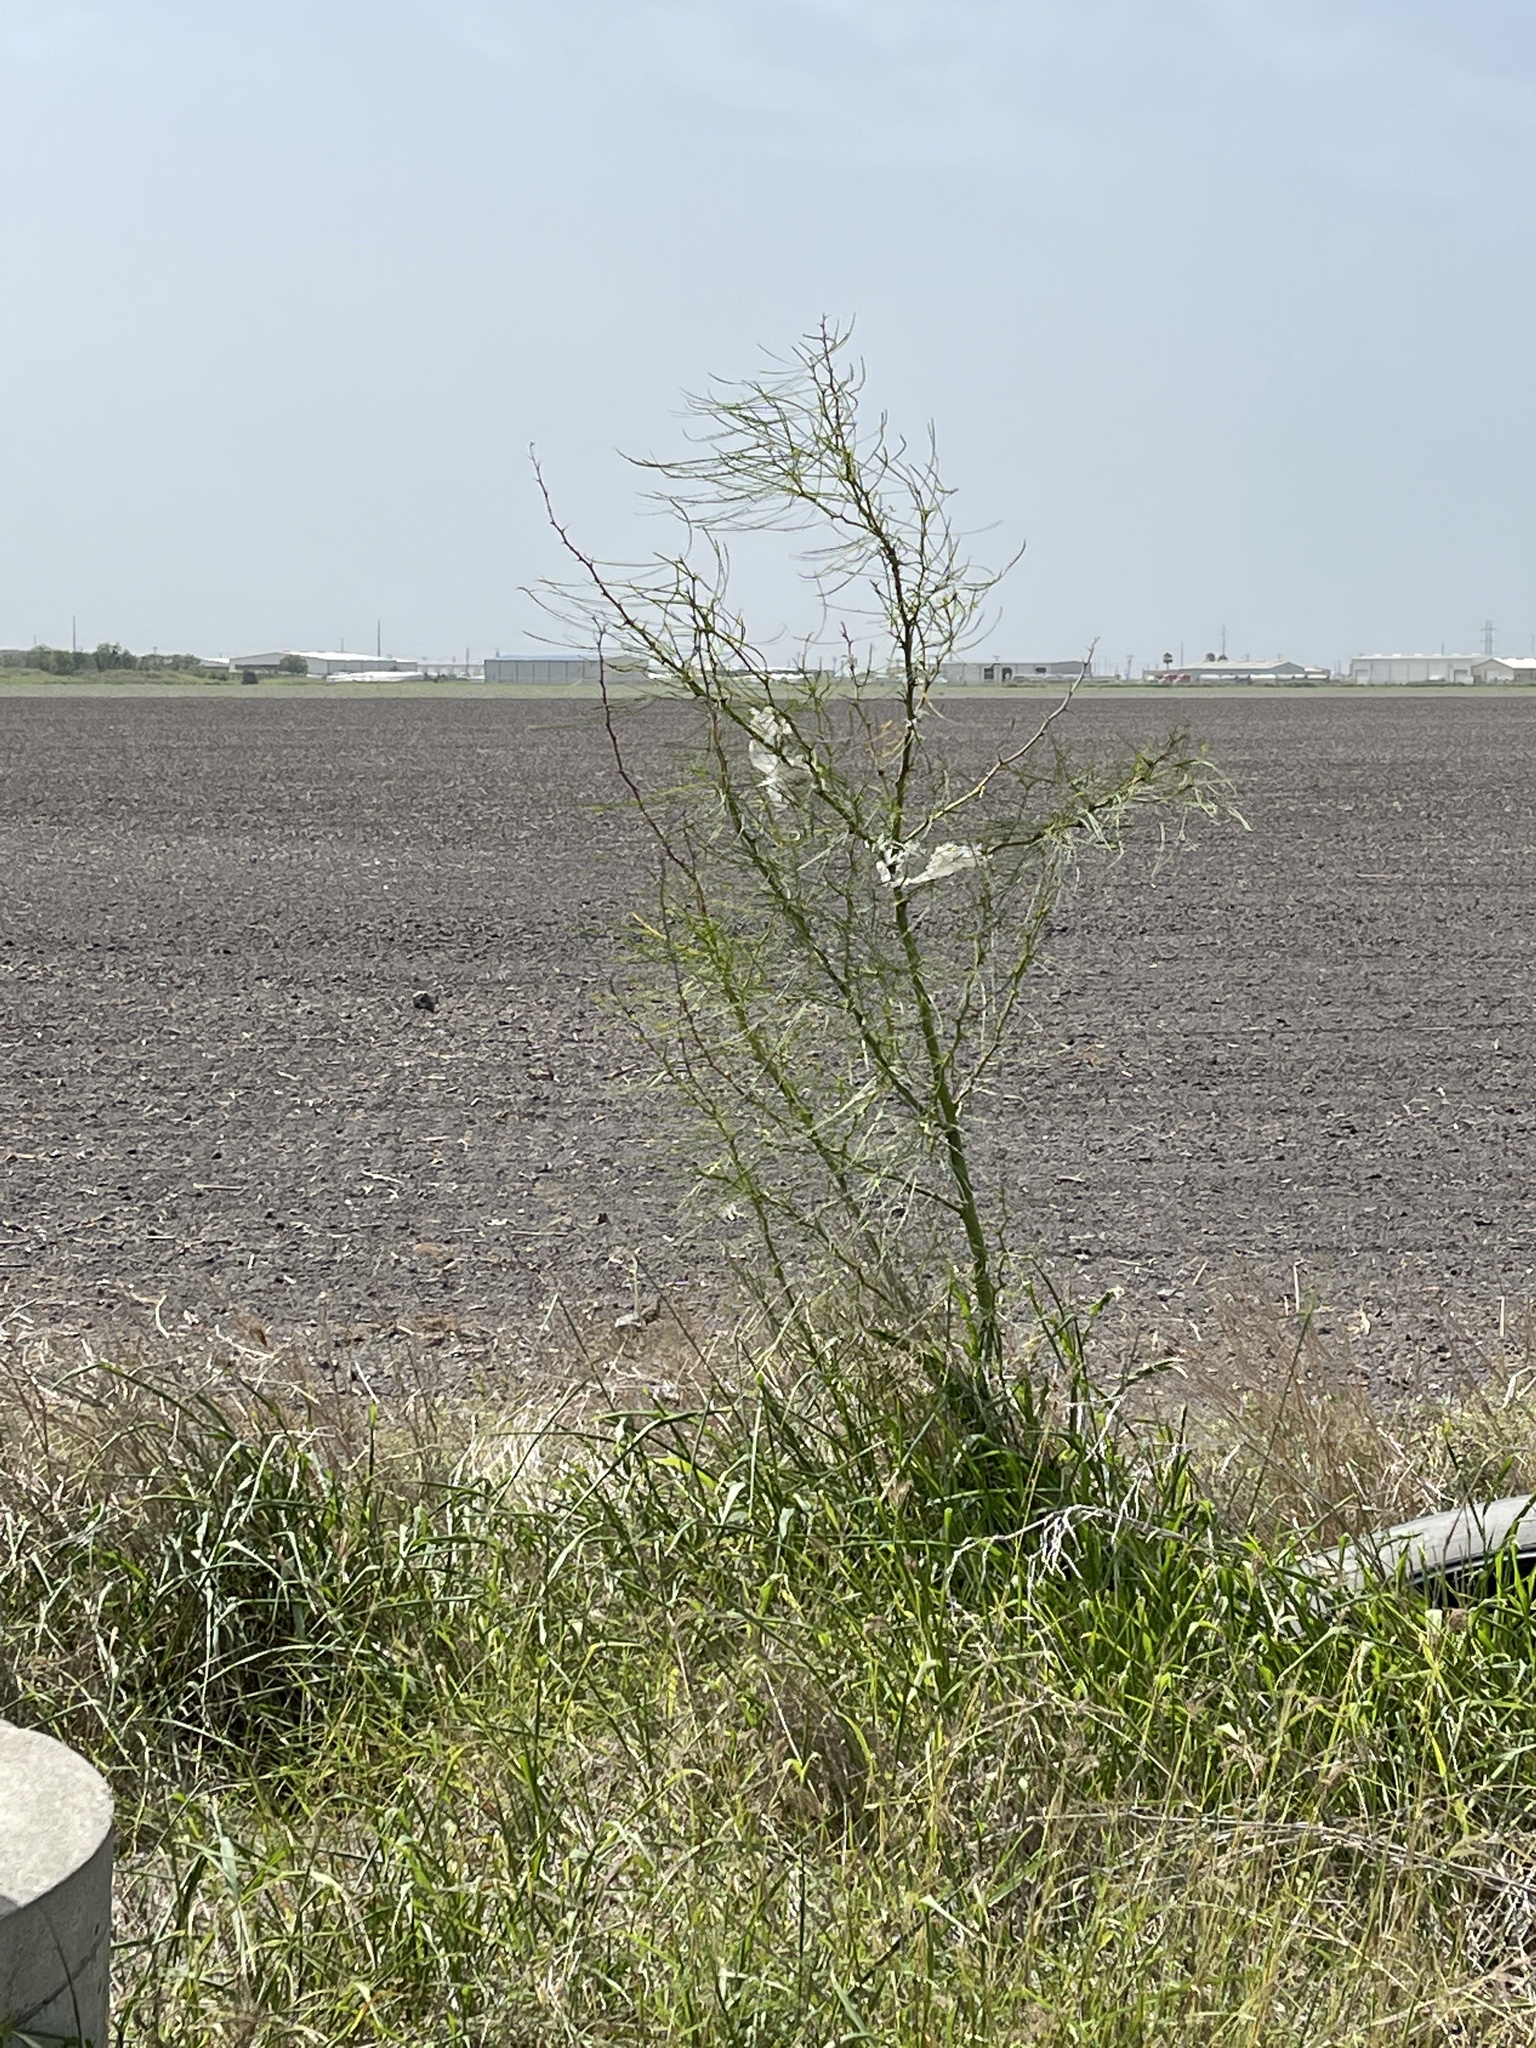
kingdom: Plantae
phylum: Tracheophyta
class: Magnoliopsida
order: Fabales
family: Fabaceae
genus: Parkinsonia
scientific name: Parkinsonia aculeata
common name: Jerusalem thorn
